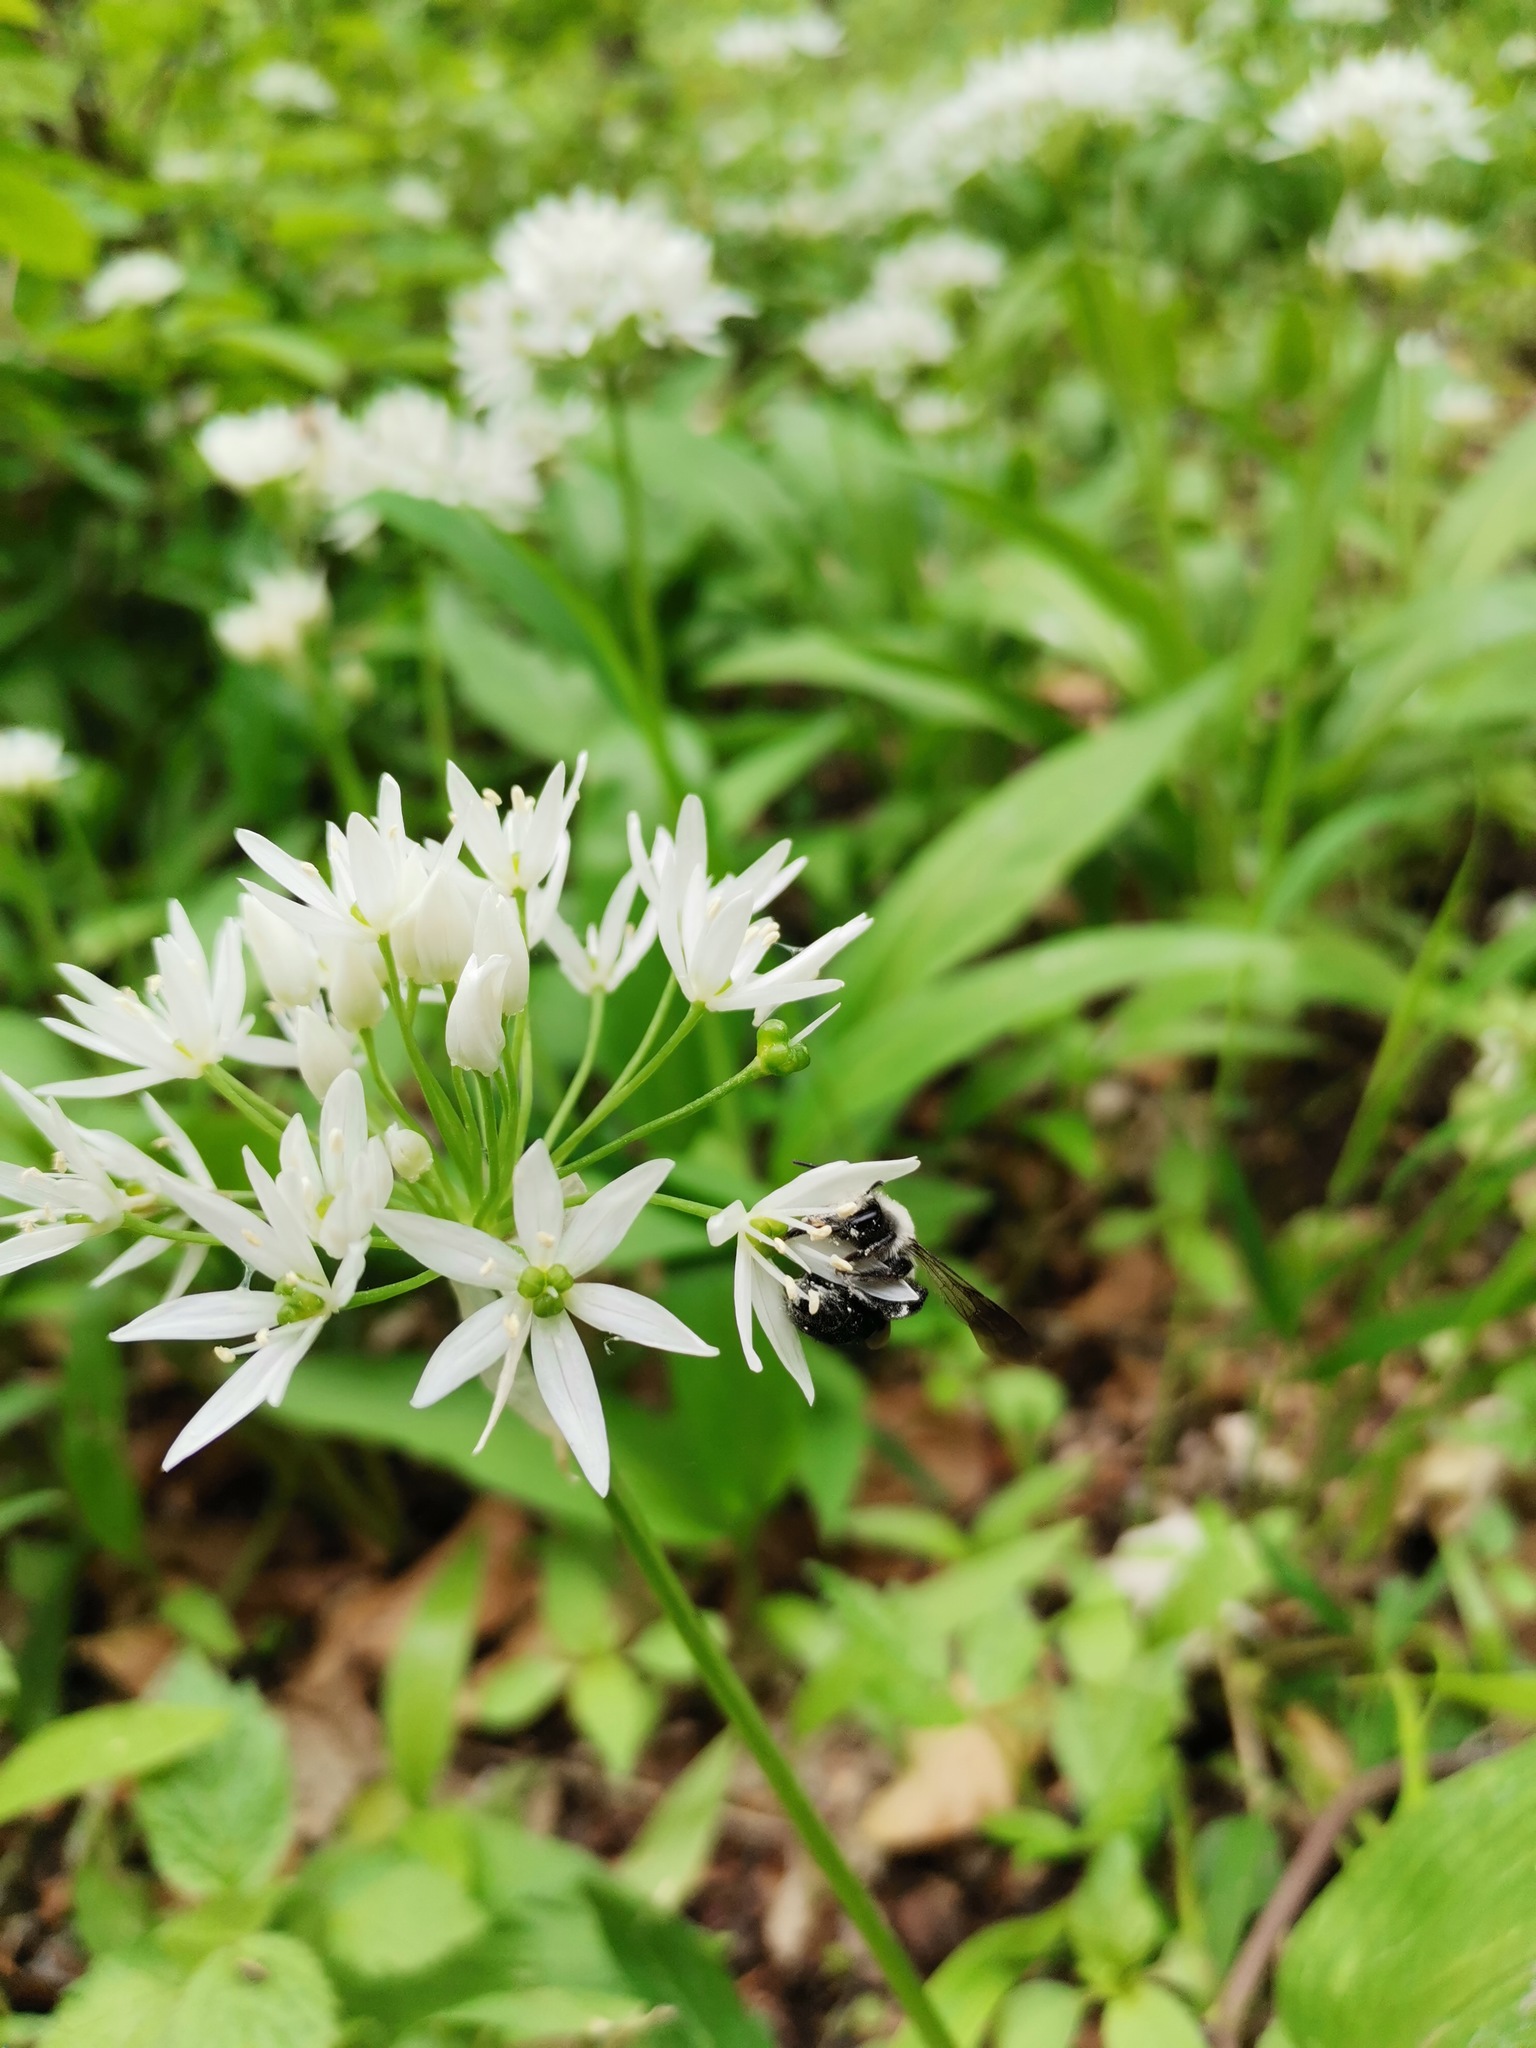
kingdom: Animalia
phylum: Arthropoda
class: Insecta
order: Hymenoptera
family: Andrenidae
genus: Andrena
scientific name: Andrena cineraria
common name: Ashy mining bee
